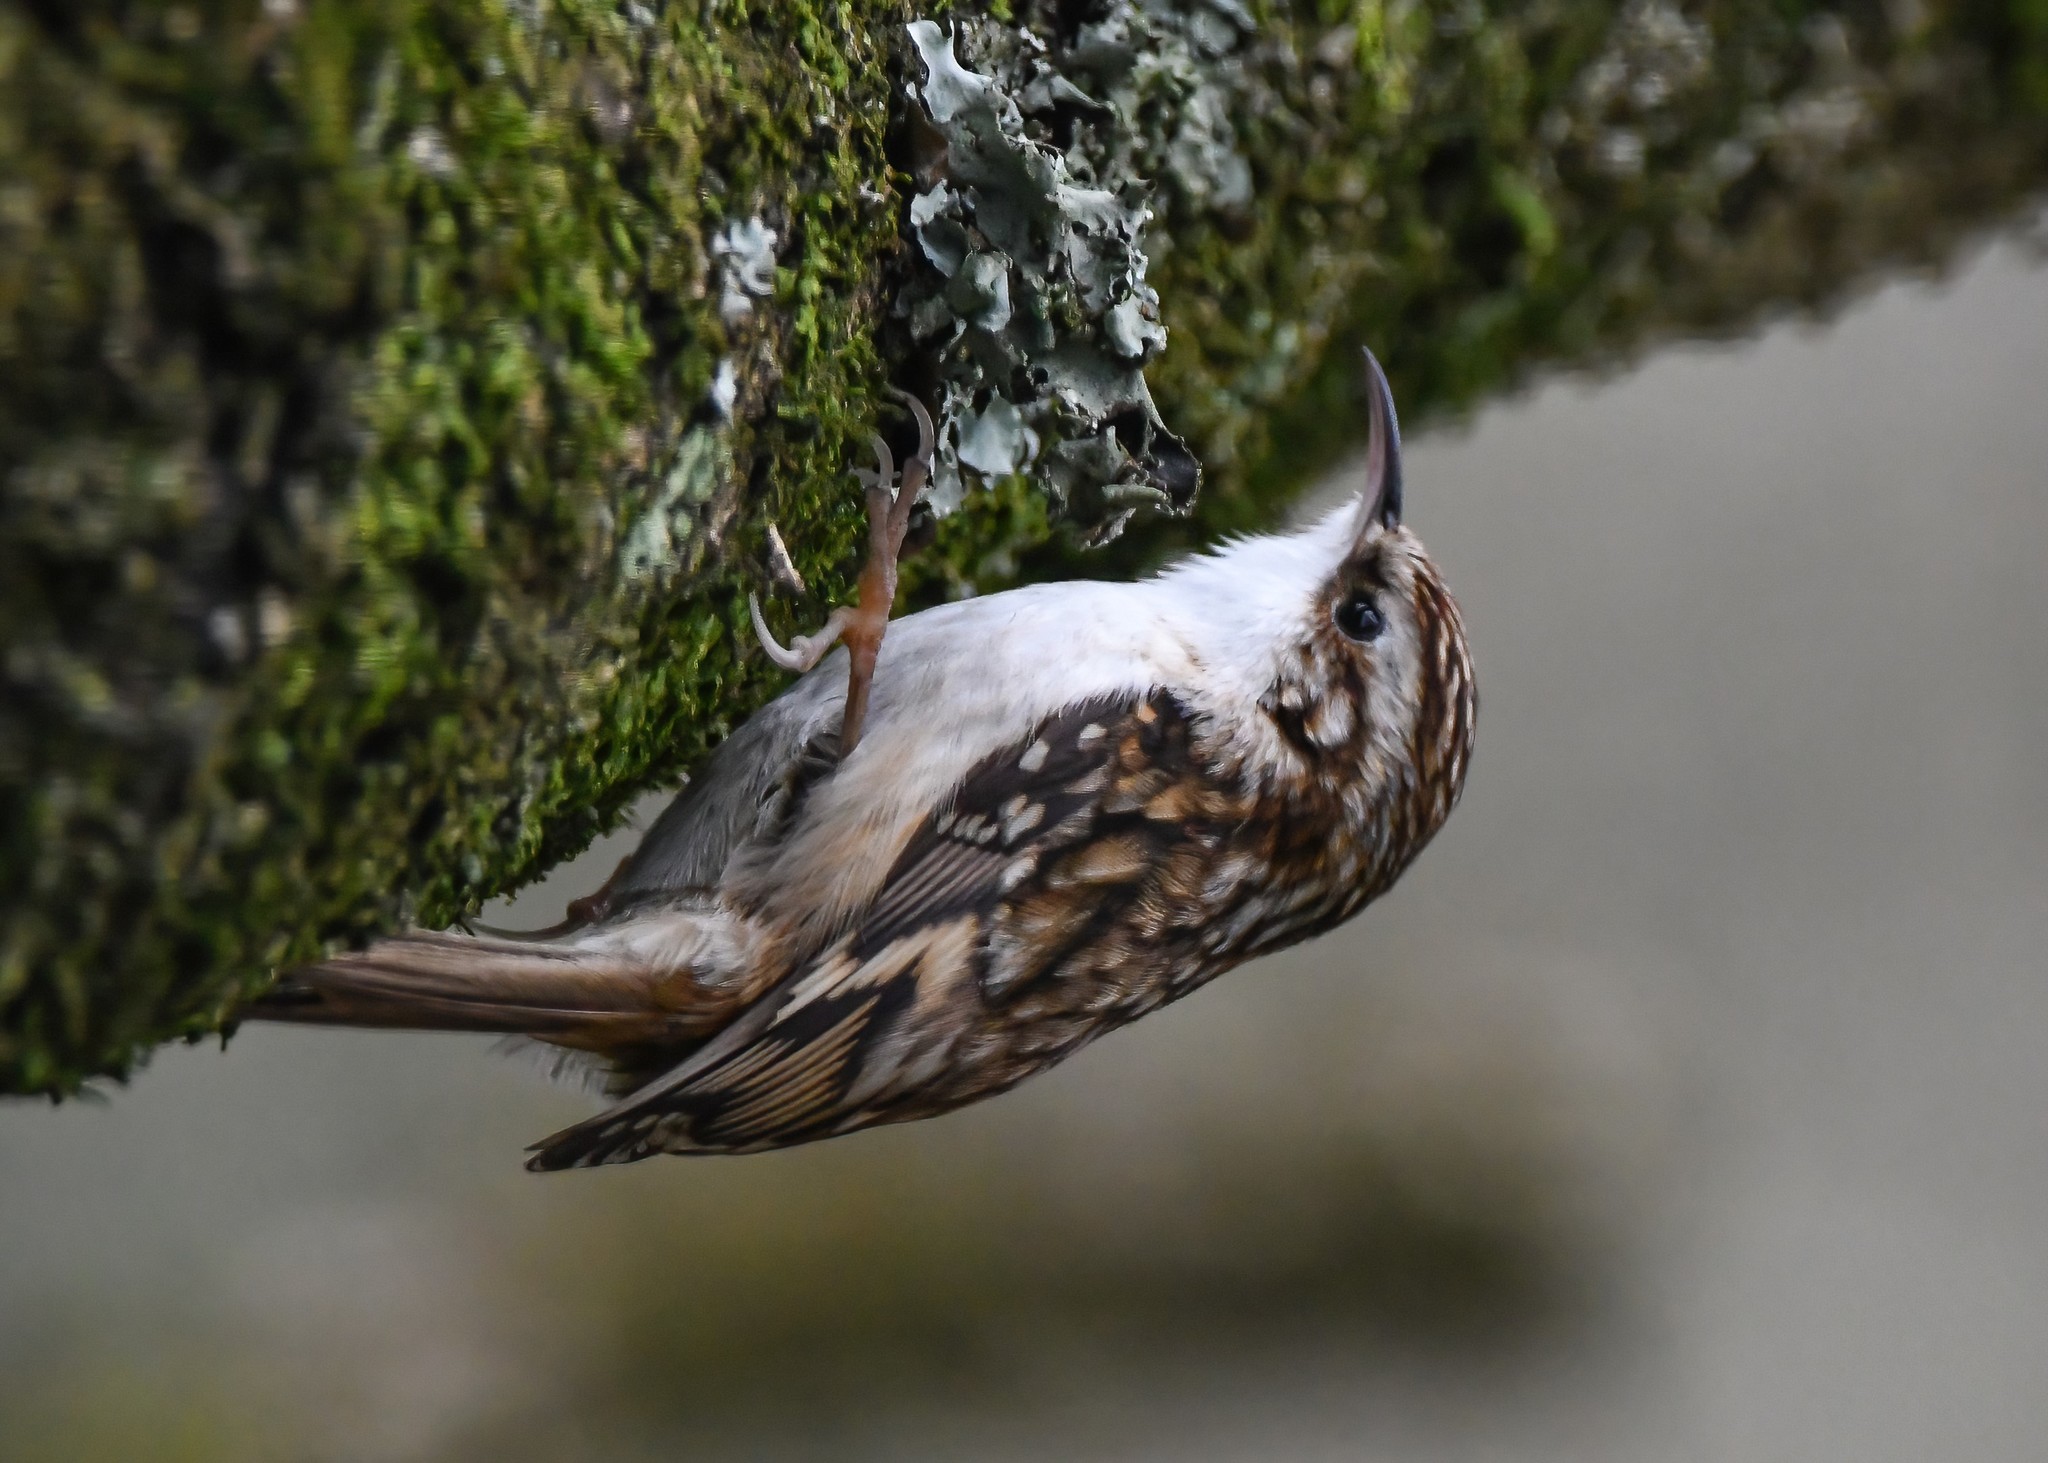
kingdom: Animalia
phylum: Chordata
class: Aves
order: Passeriformes
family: Certhiidae
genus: Certhia
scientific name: Certhia familiaris
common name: Eurasian treecreeper
